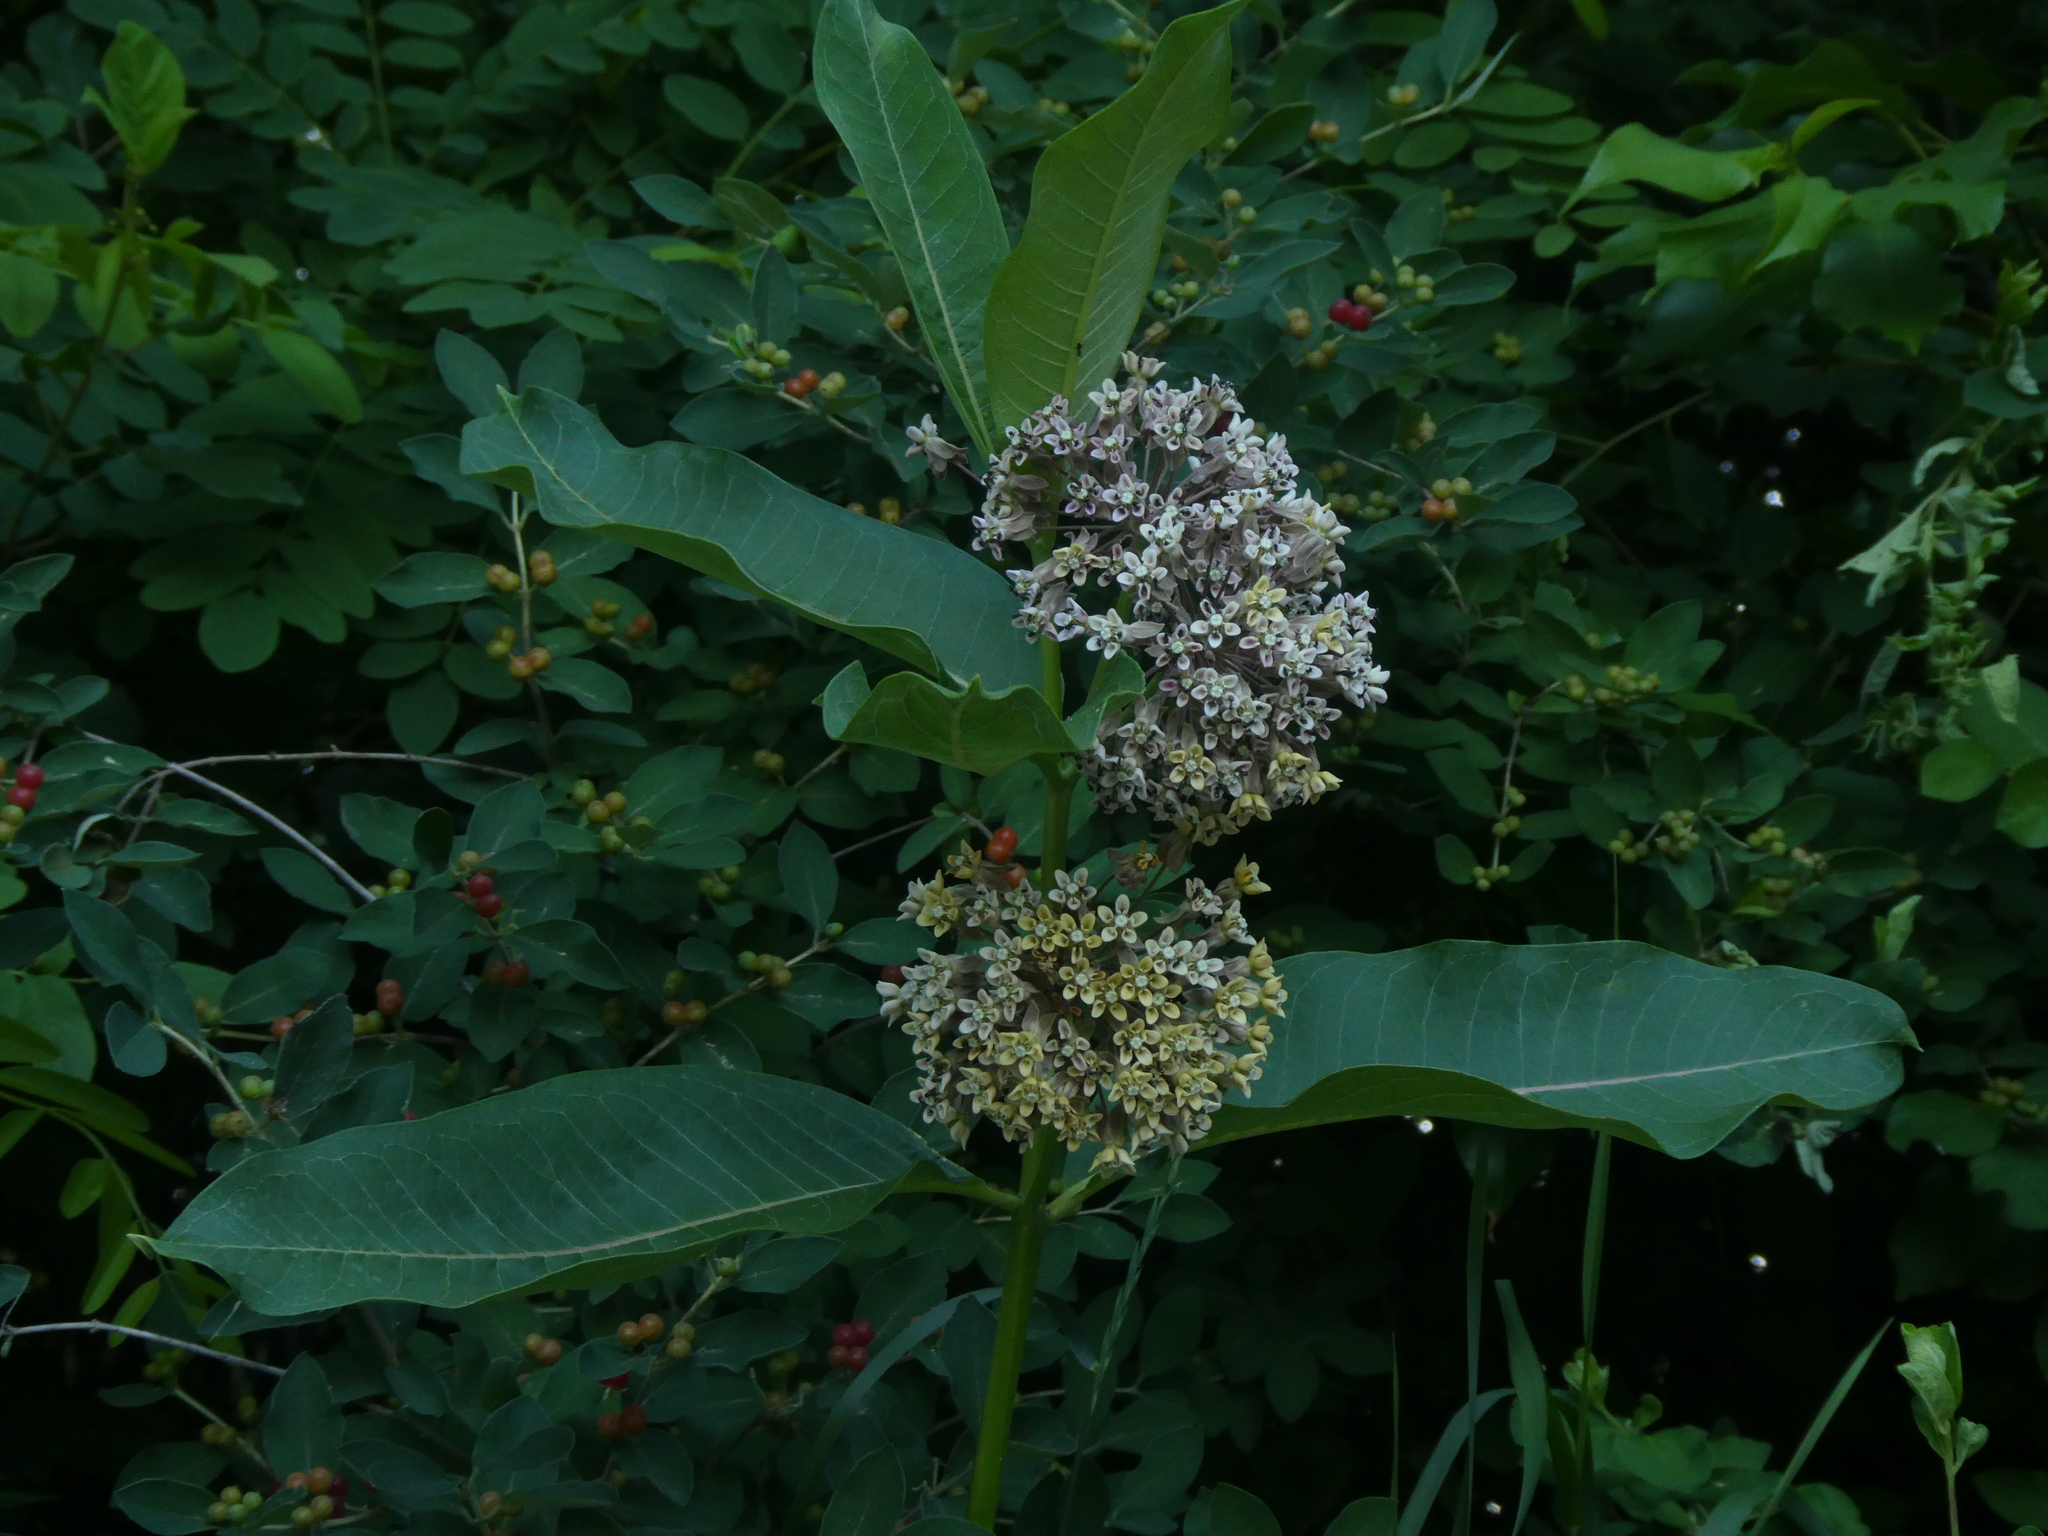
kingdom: Plantae
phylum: Tracheophyta
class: Magnoliopsida
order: Gentianales
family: Apocynaceae
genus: Asclepias
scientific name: Asclepias syriaca
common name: Common milkweed
